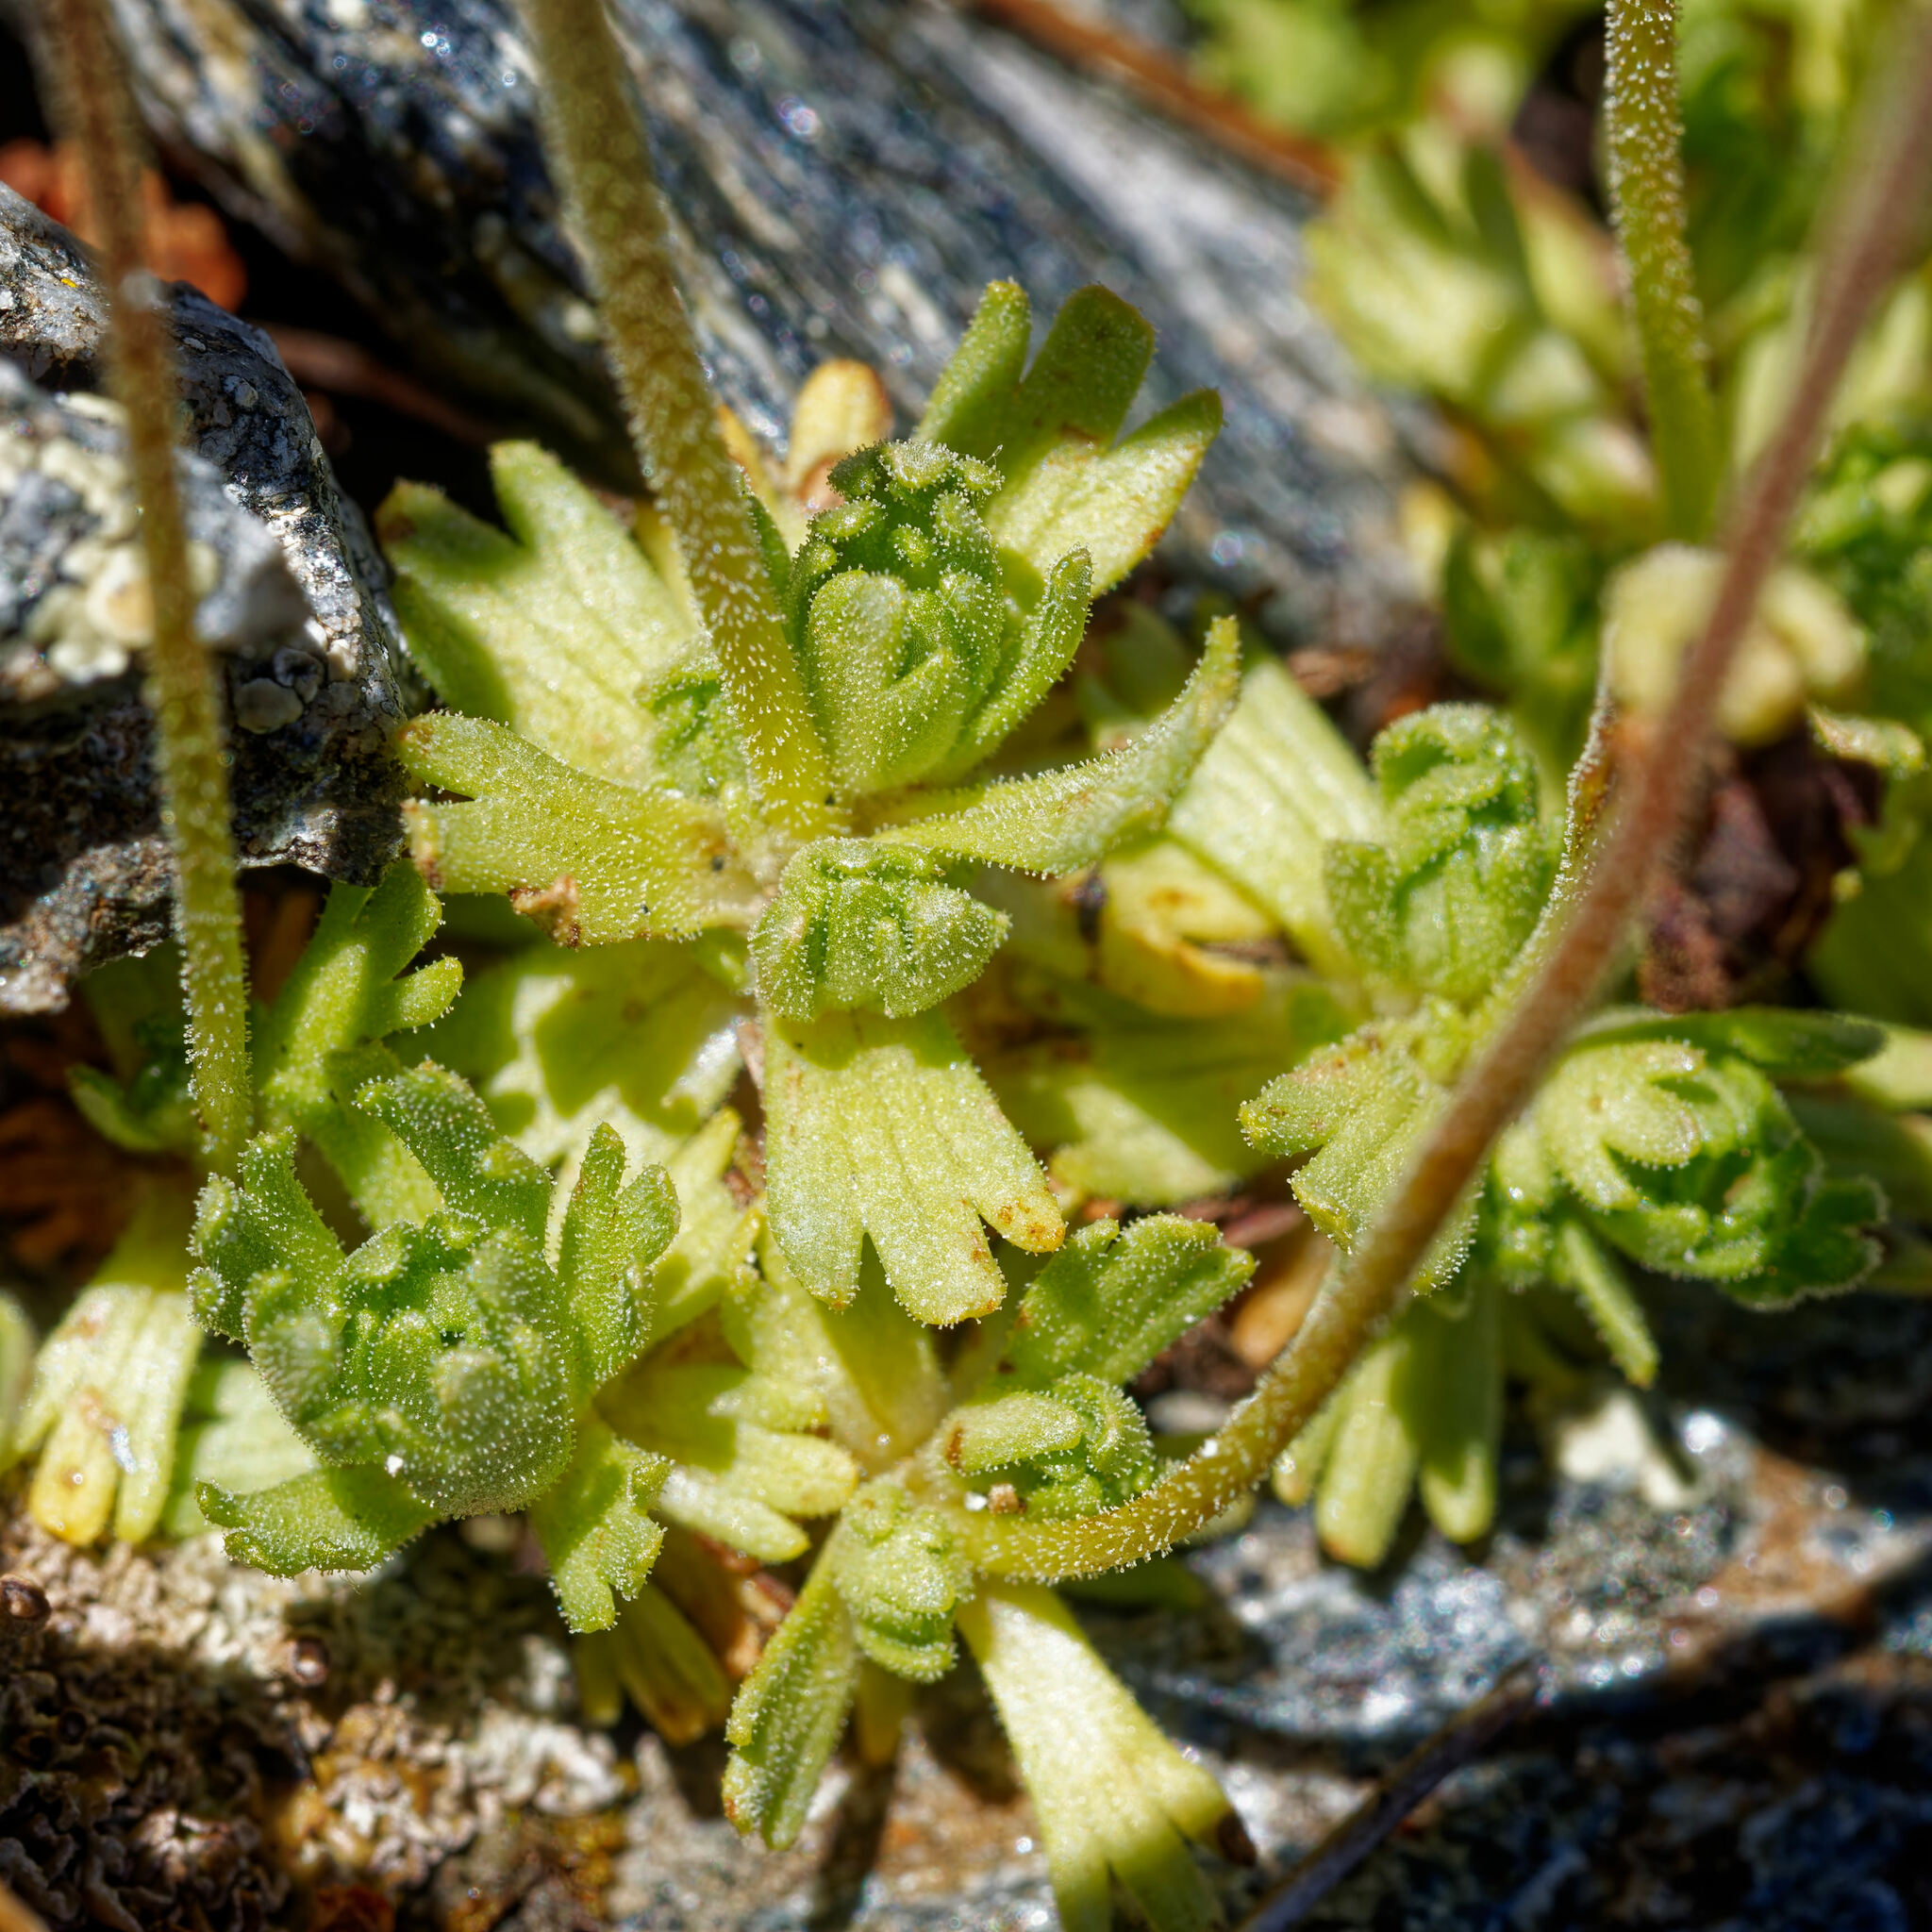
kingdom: Plantae
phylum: Tracheophyta
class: Magnoliopsida
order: Saxifragales
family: Saxifragaceae
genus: Saxifraga
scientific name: Saxifraga exarata
